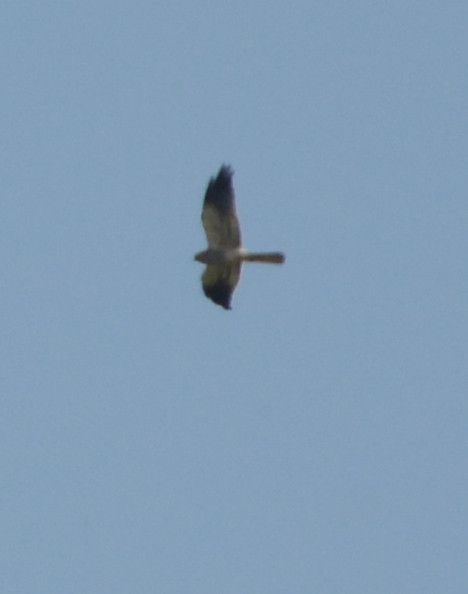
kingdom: Animalia
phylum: Chordata
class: Aves
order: Accipitriformes
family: Accipitridae
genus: Circus
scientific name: Circus pygargus
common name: Montagu's harrier
